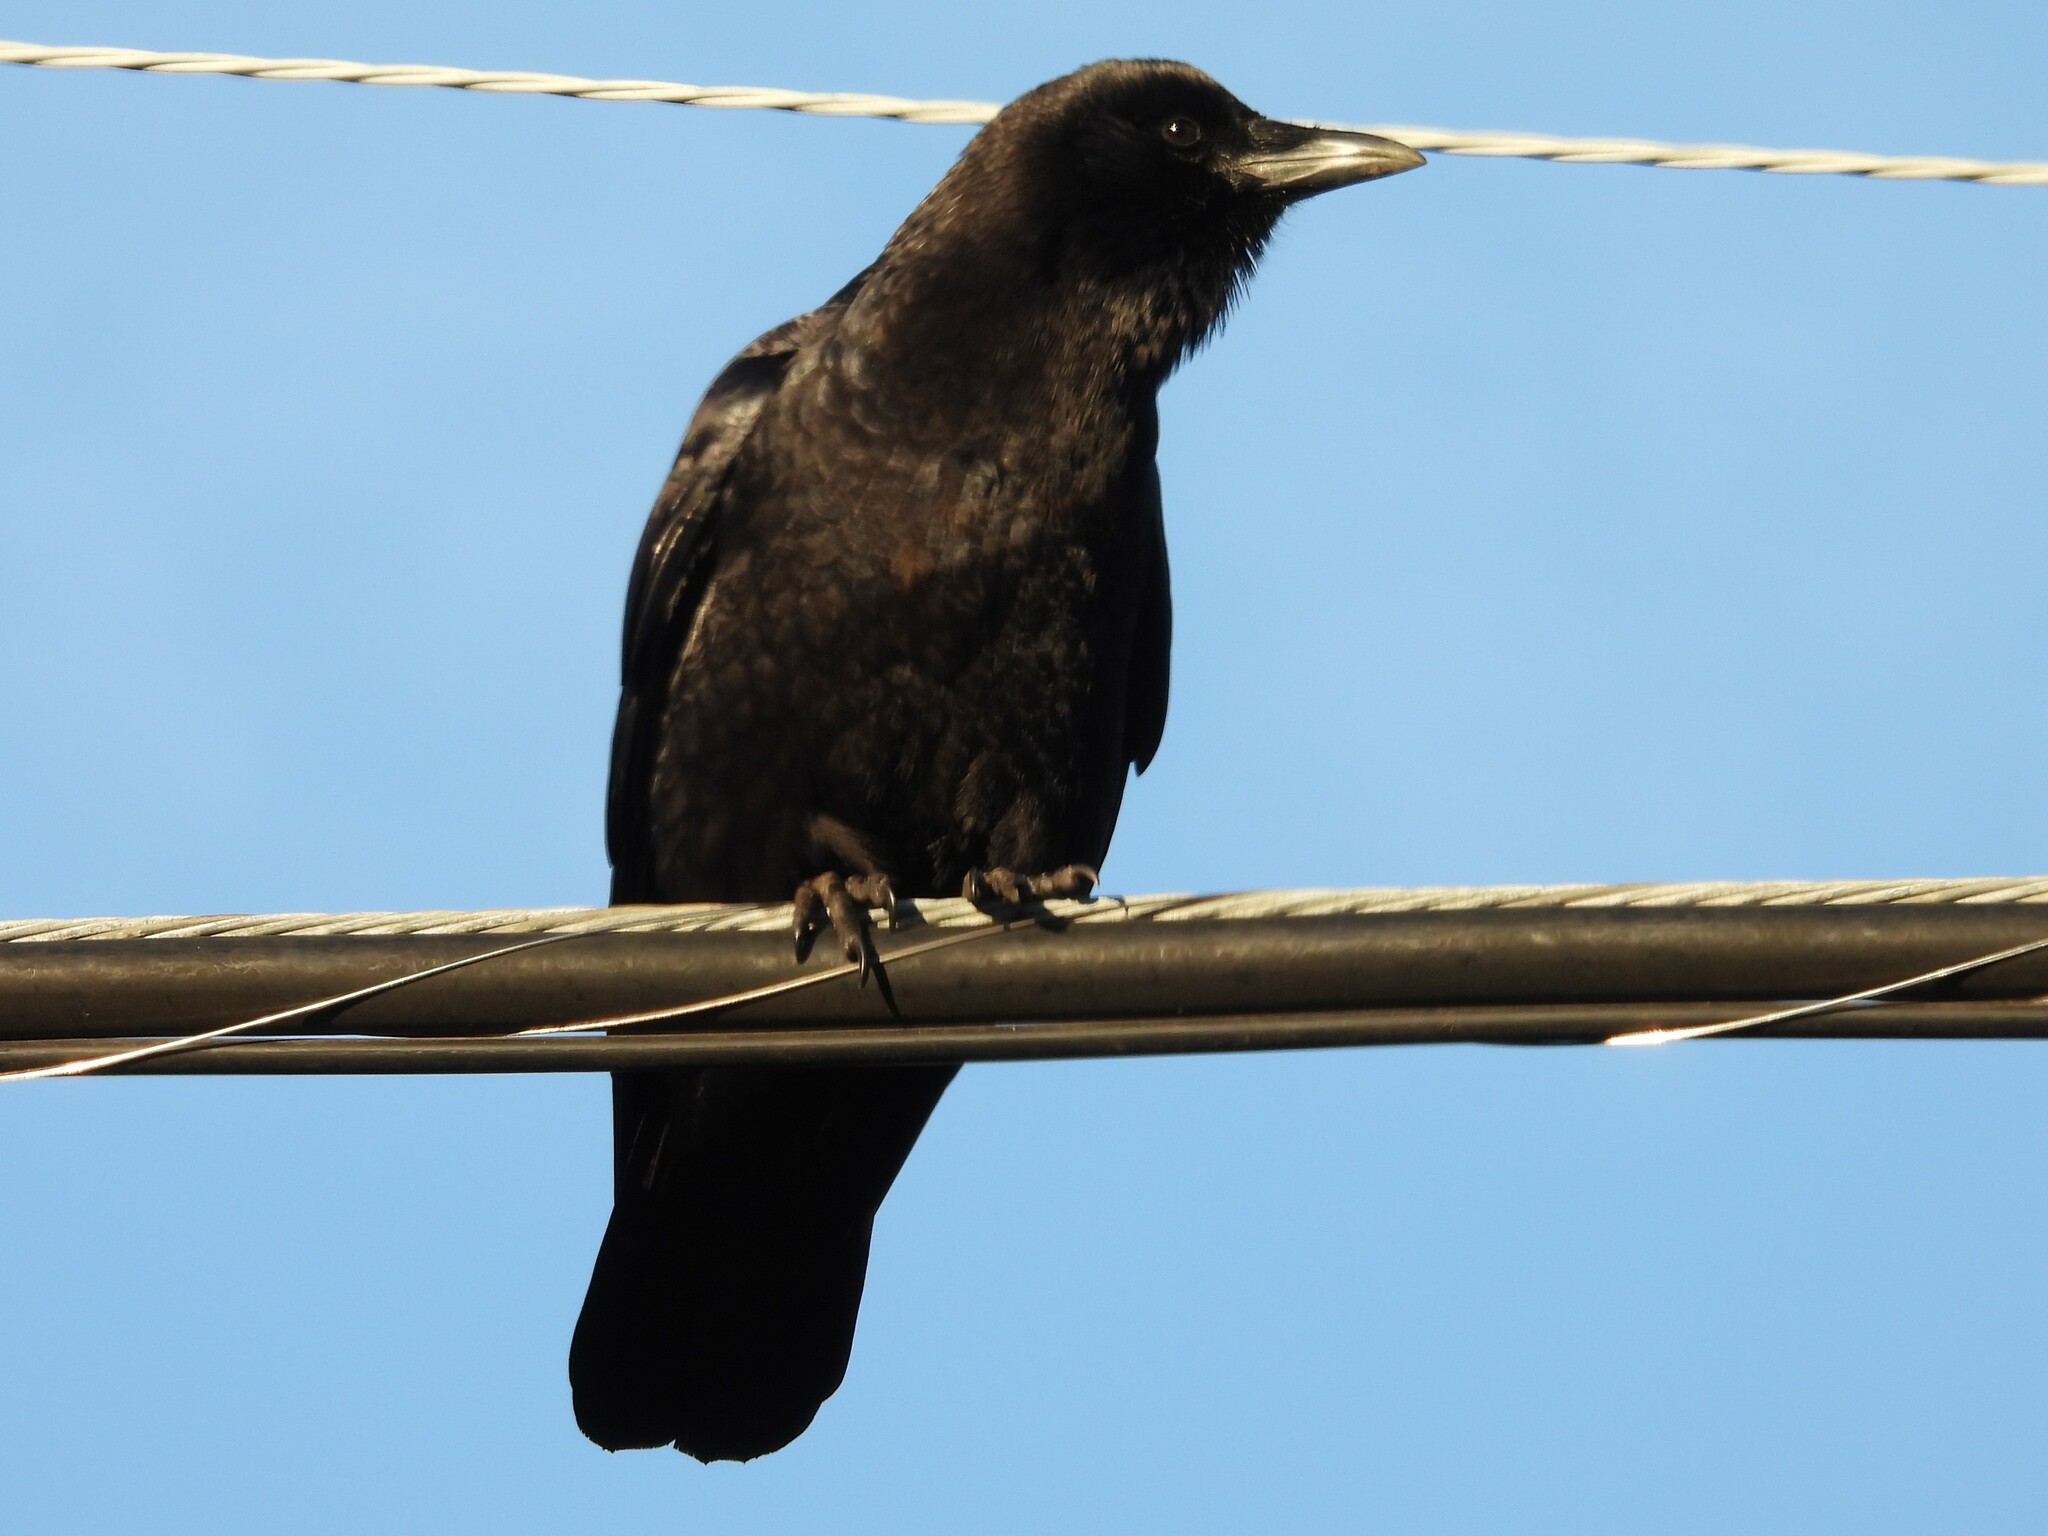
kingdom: Animalia
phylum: Chordata
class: Aves
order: Passeriformes
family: Corvidae
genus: Corvus
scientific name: Corvus brachyrhynchos
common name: American crow
